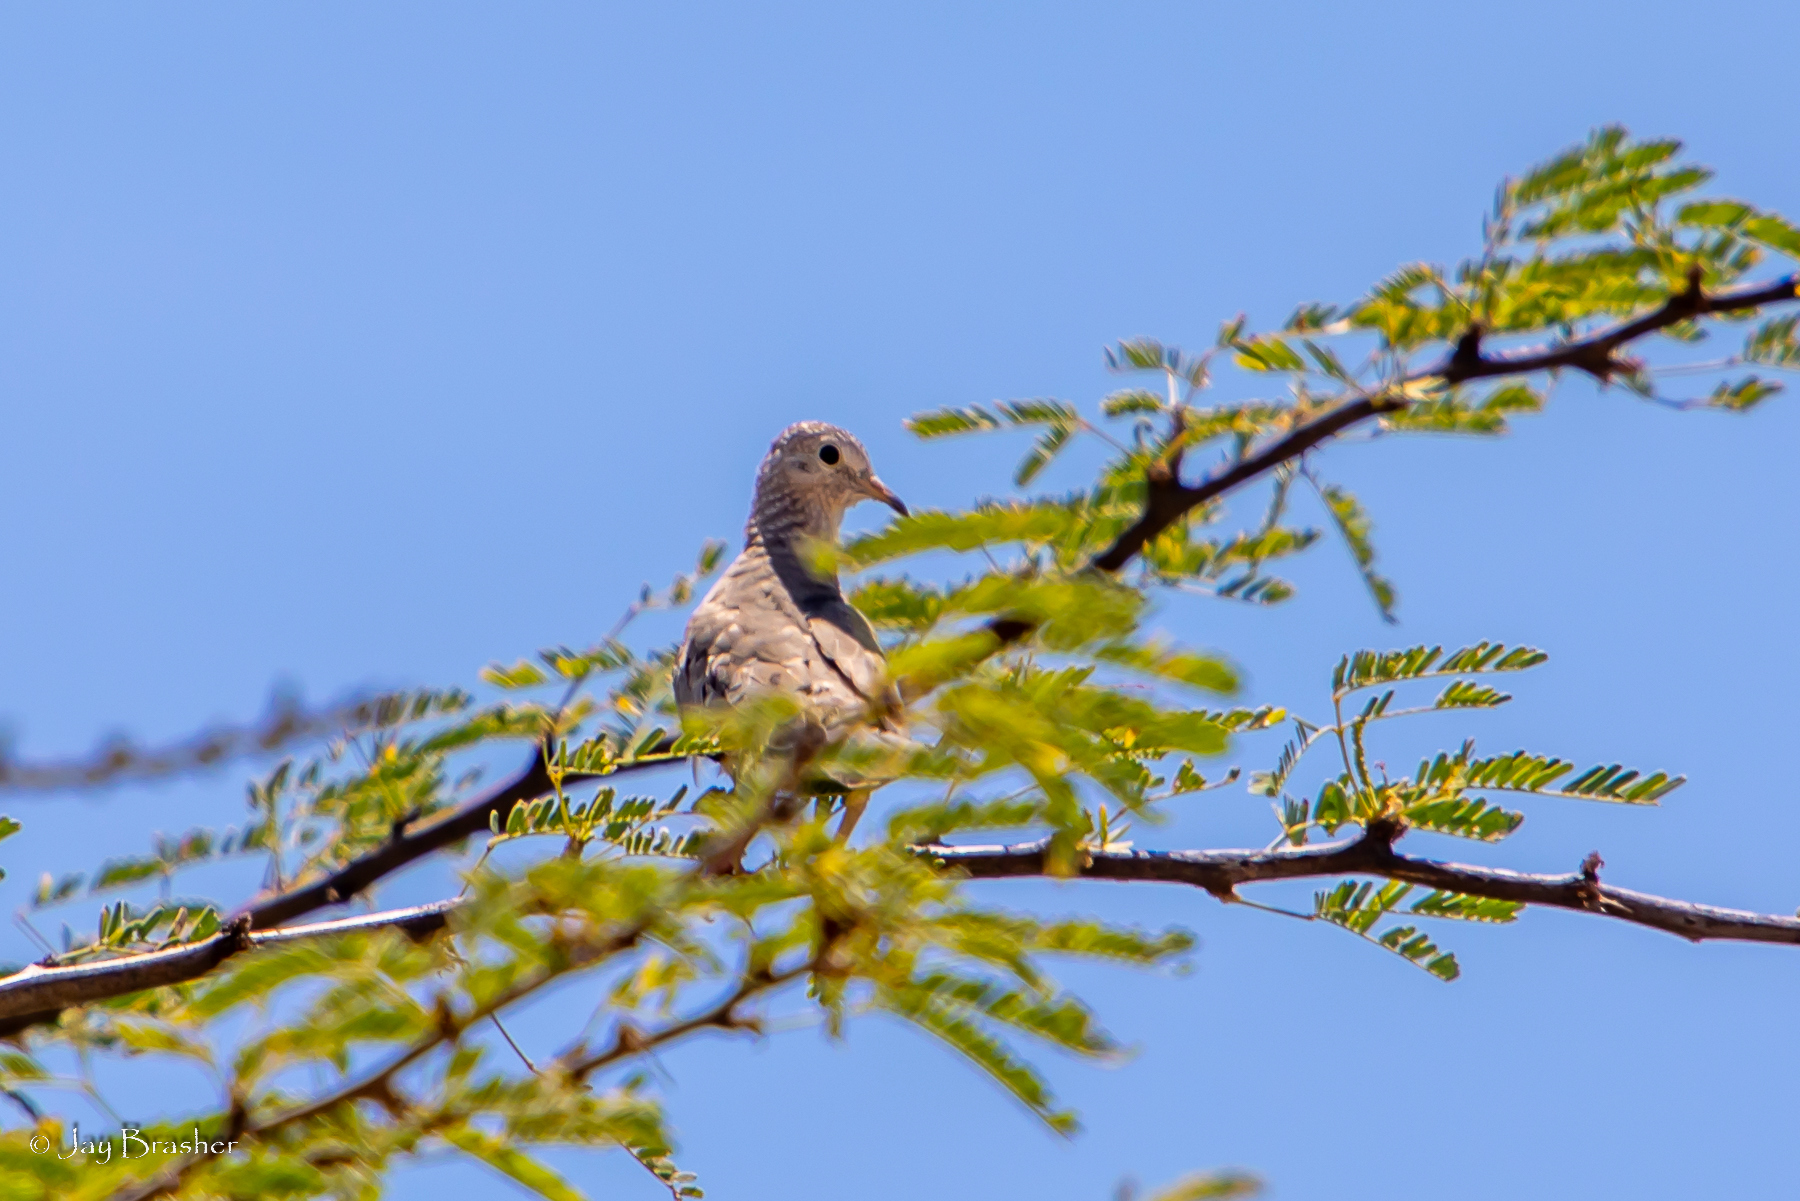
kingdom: Animalia
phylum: Chordata
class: Aves
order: Columbiformes
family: Columbidae
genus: Columbina
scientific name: Columbina passerina
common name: Common ground-dove
